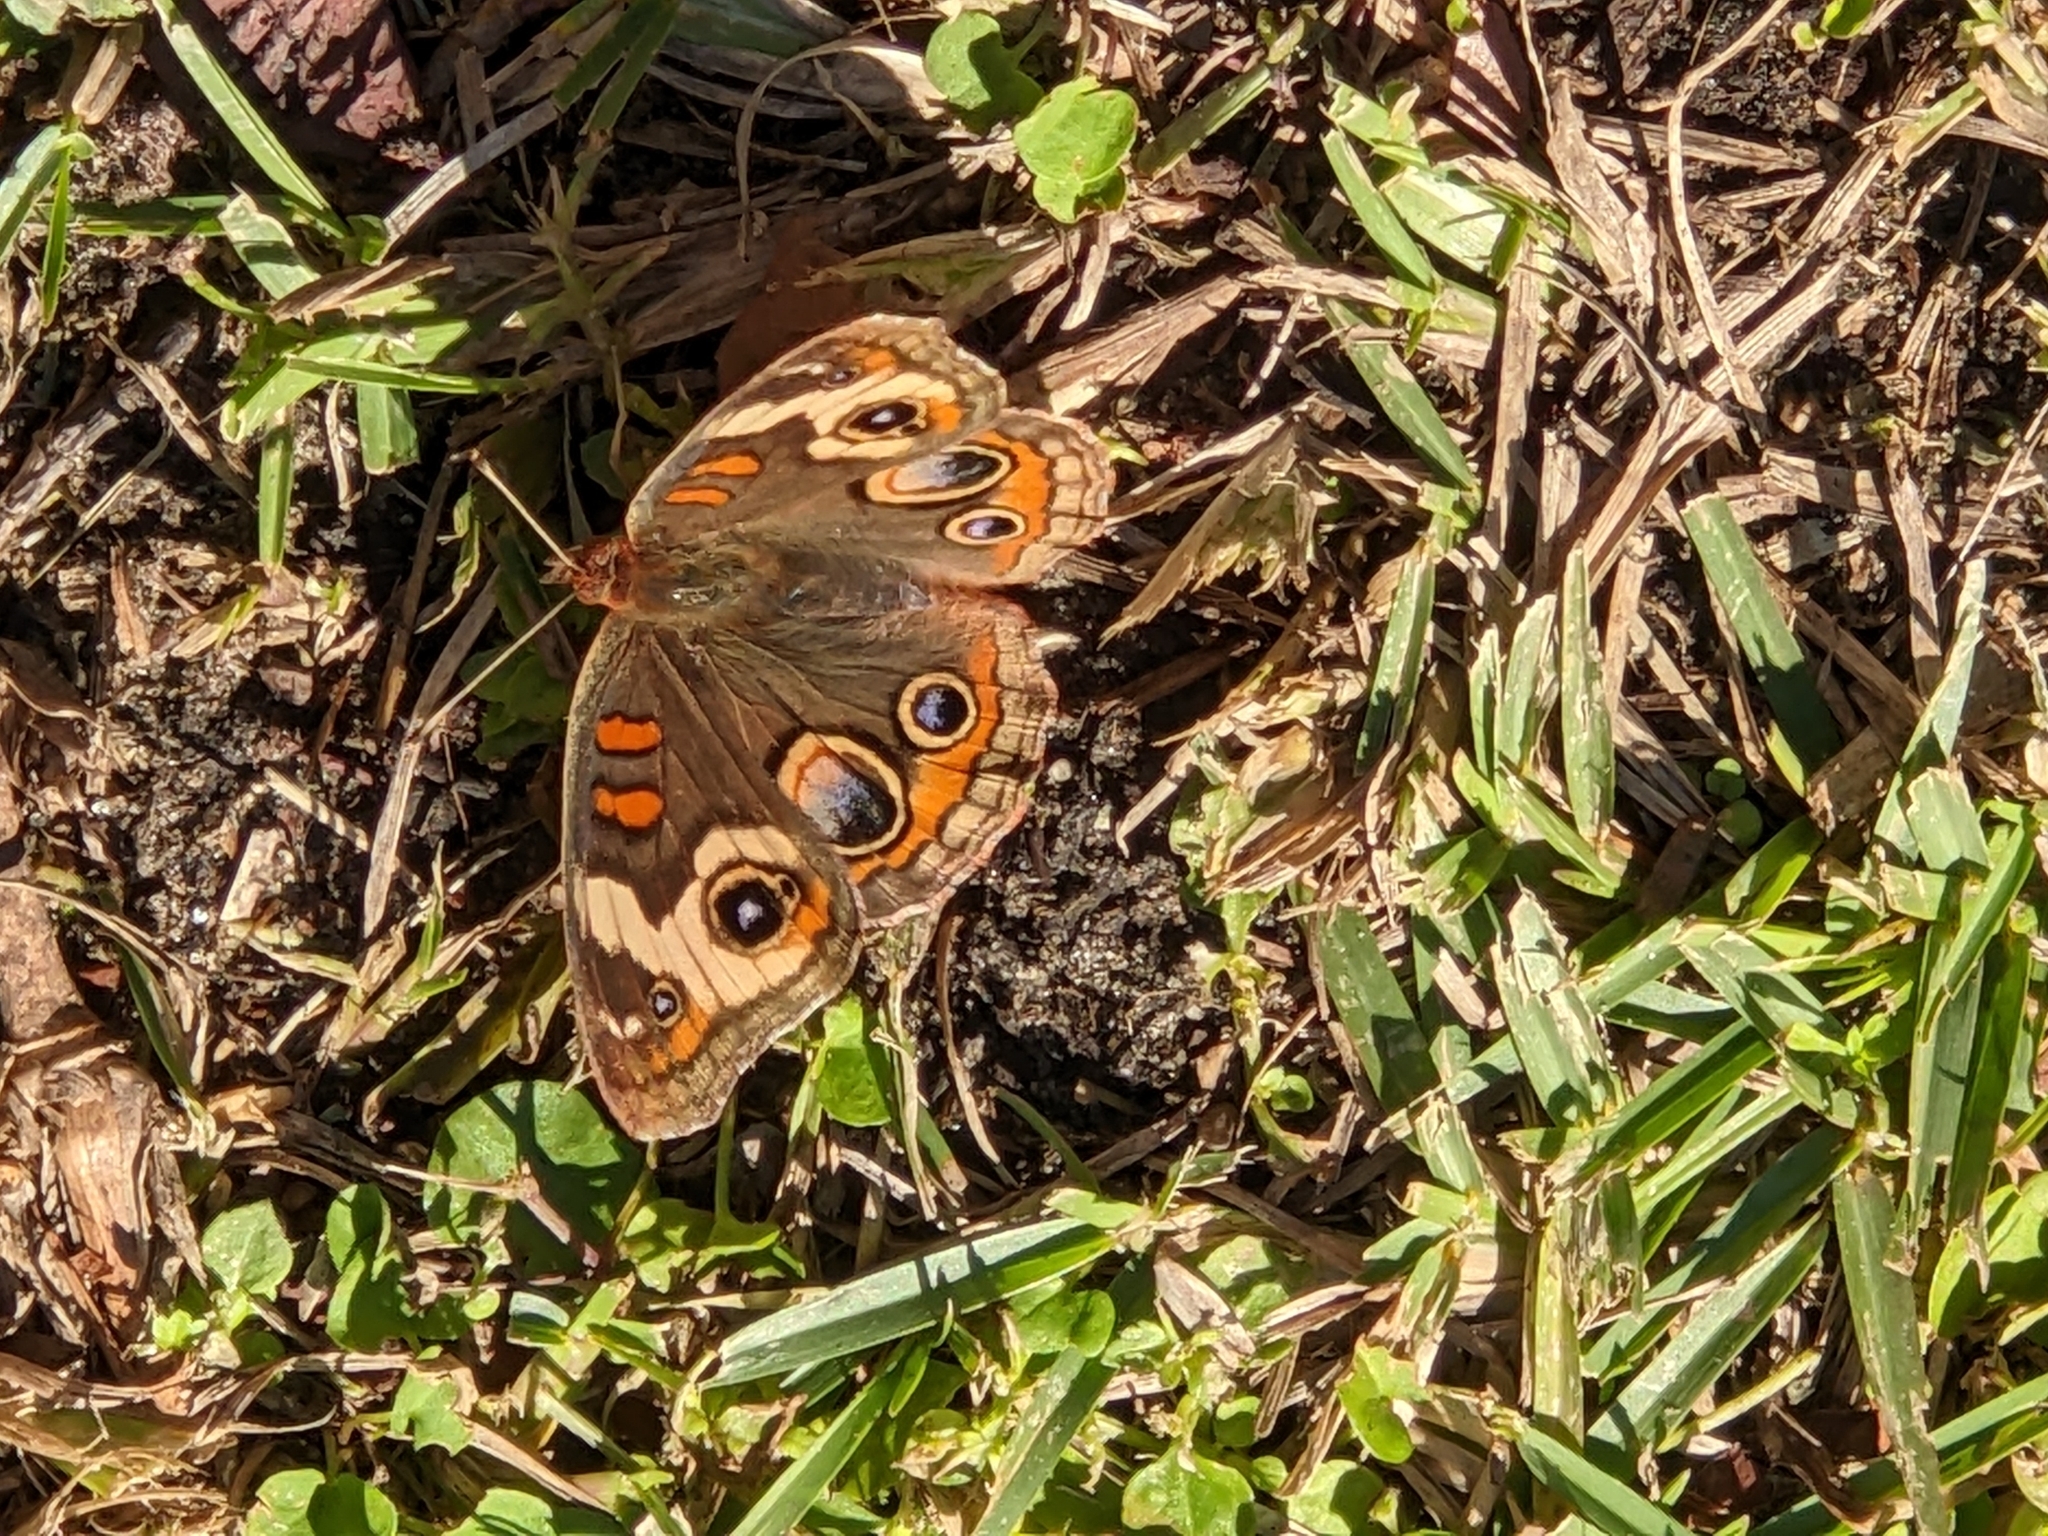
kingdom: Animalia
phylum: Arthropoda
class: Insecta
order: Lepidoptera
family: Nymphalidae
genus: Junonia
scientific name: Junonia coenia
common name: Common buckeye
